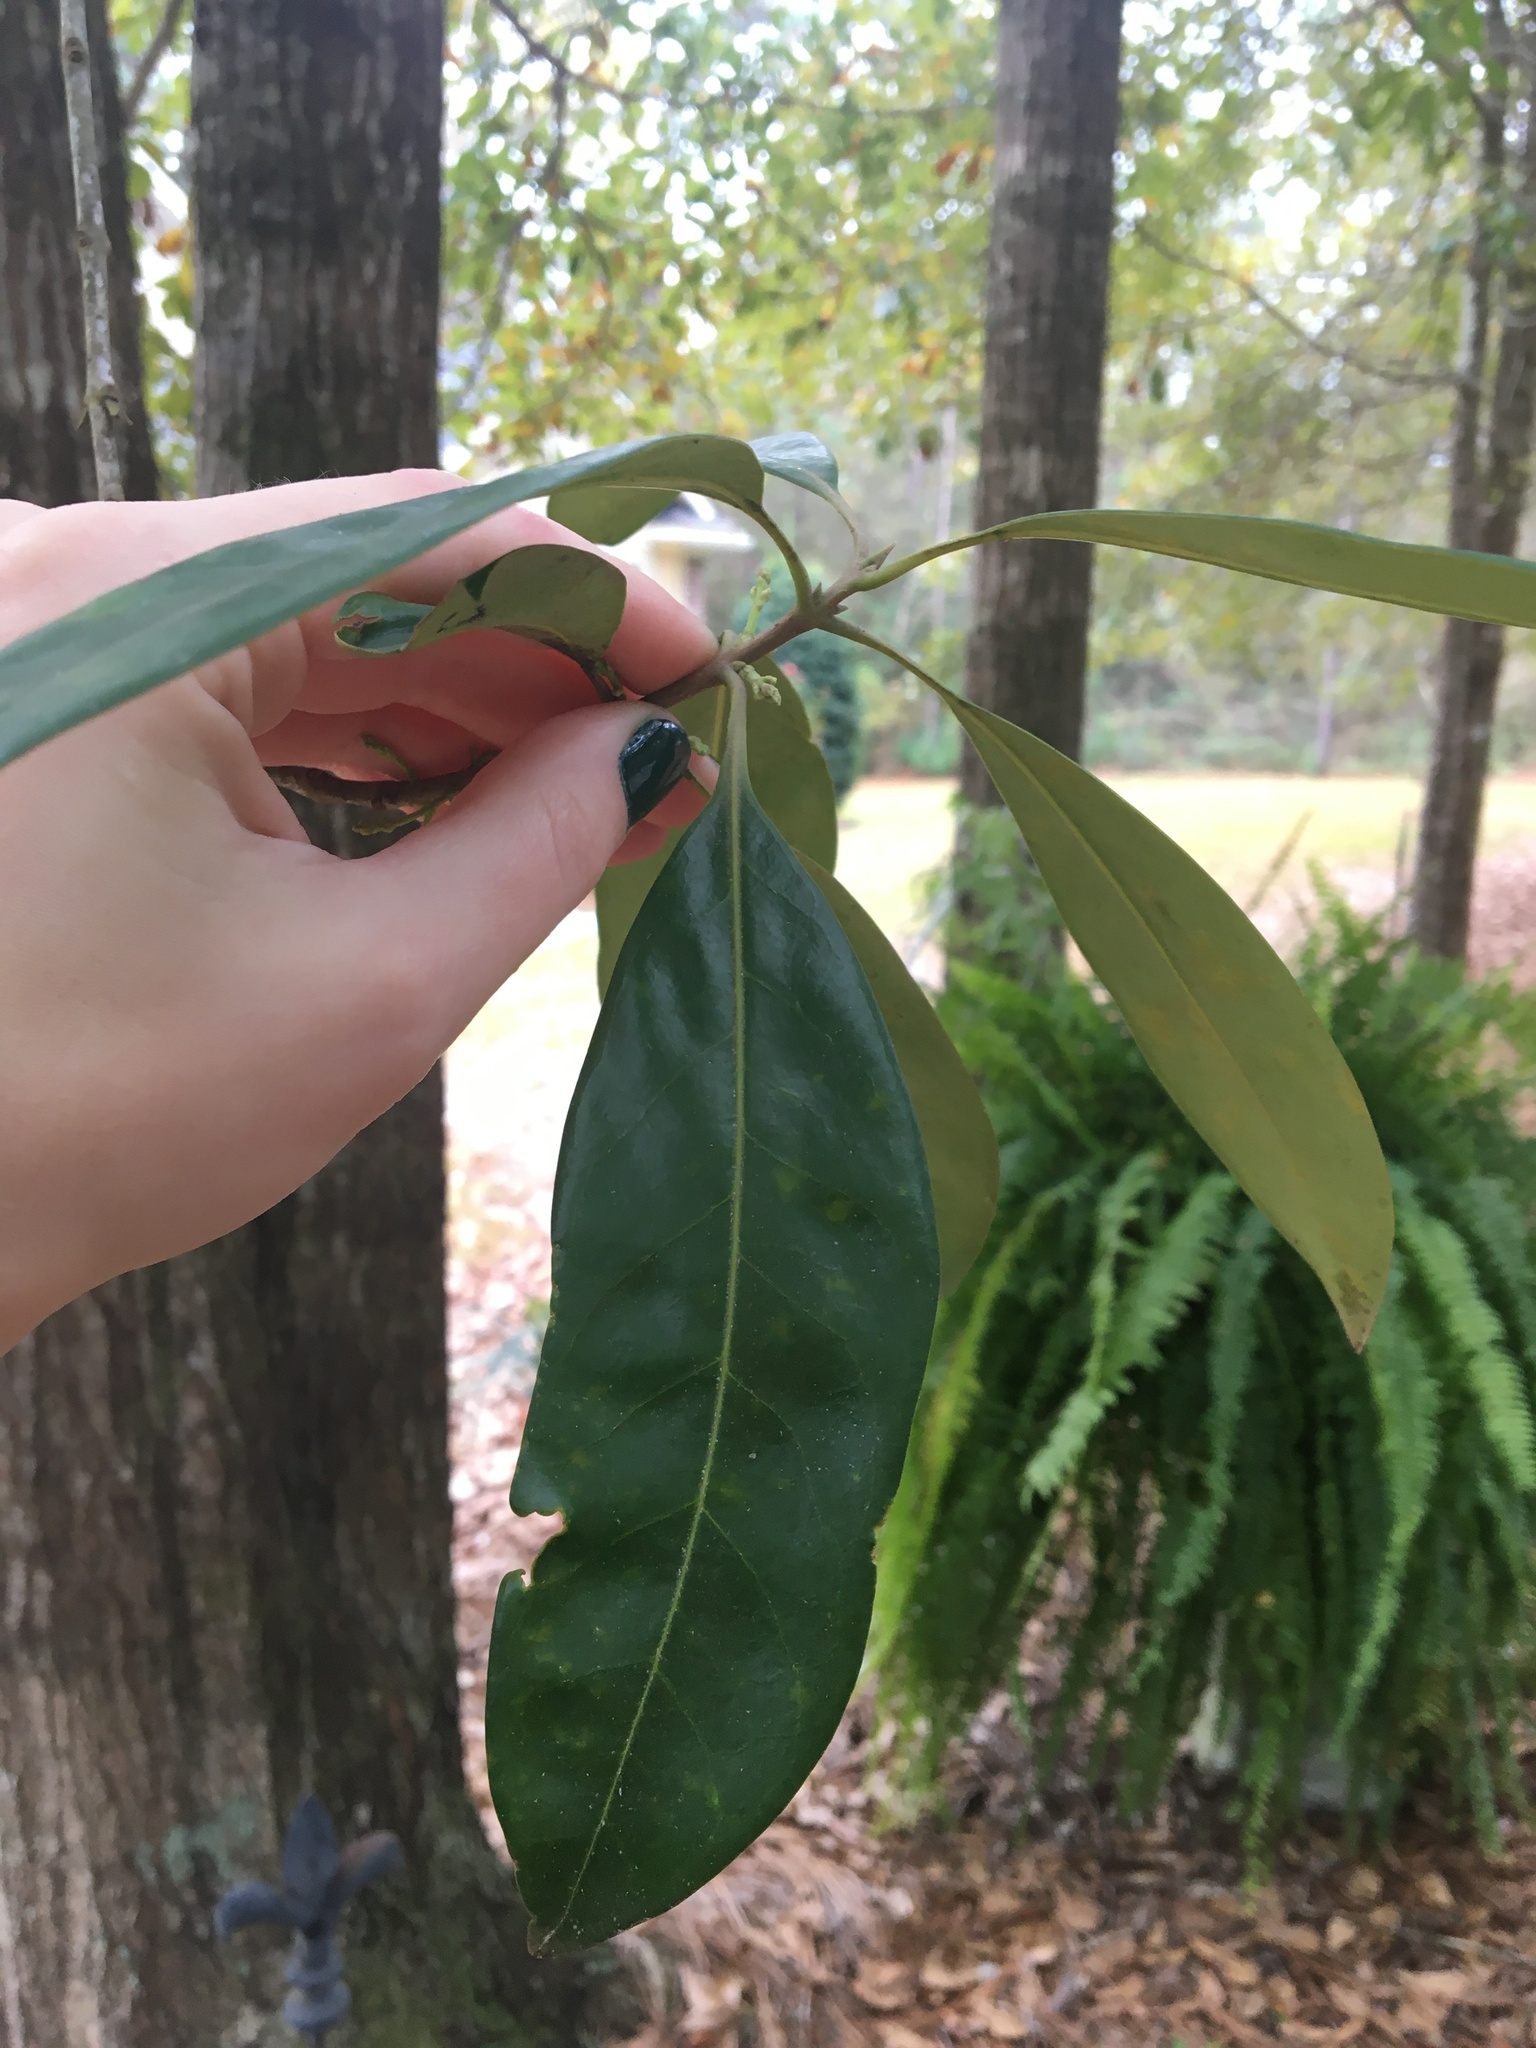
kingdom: Plantae
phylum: Tracheophyta
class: Magnoliopsida
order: Lamiales
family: Oleaceae
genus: Cartrema
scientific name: Cartrema americana
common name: Devilwood
